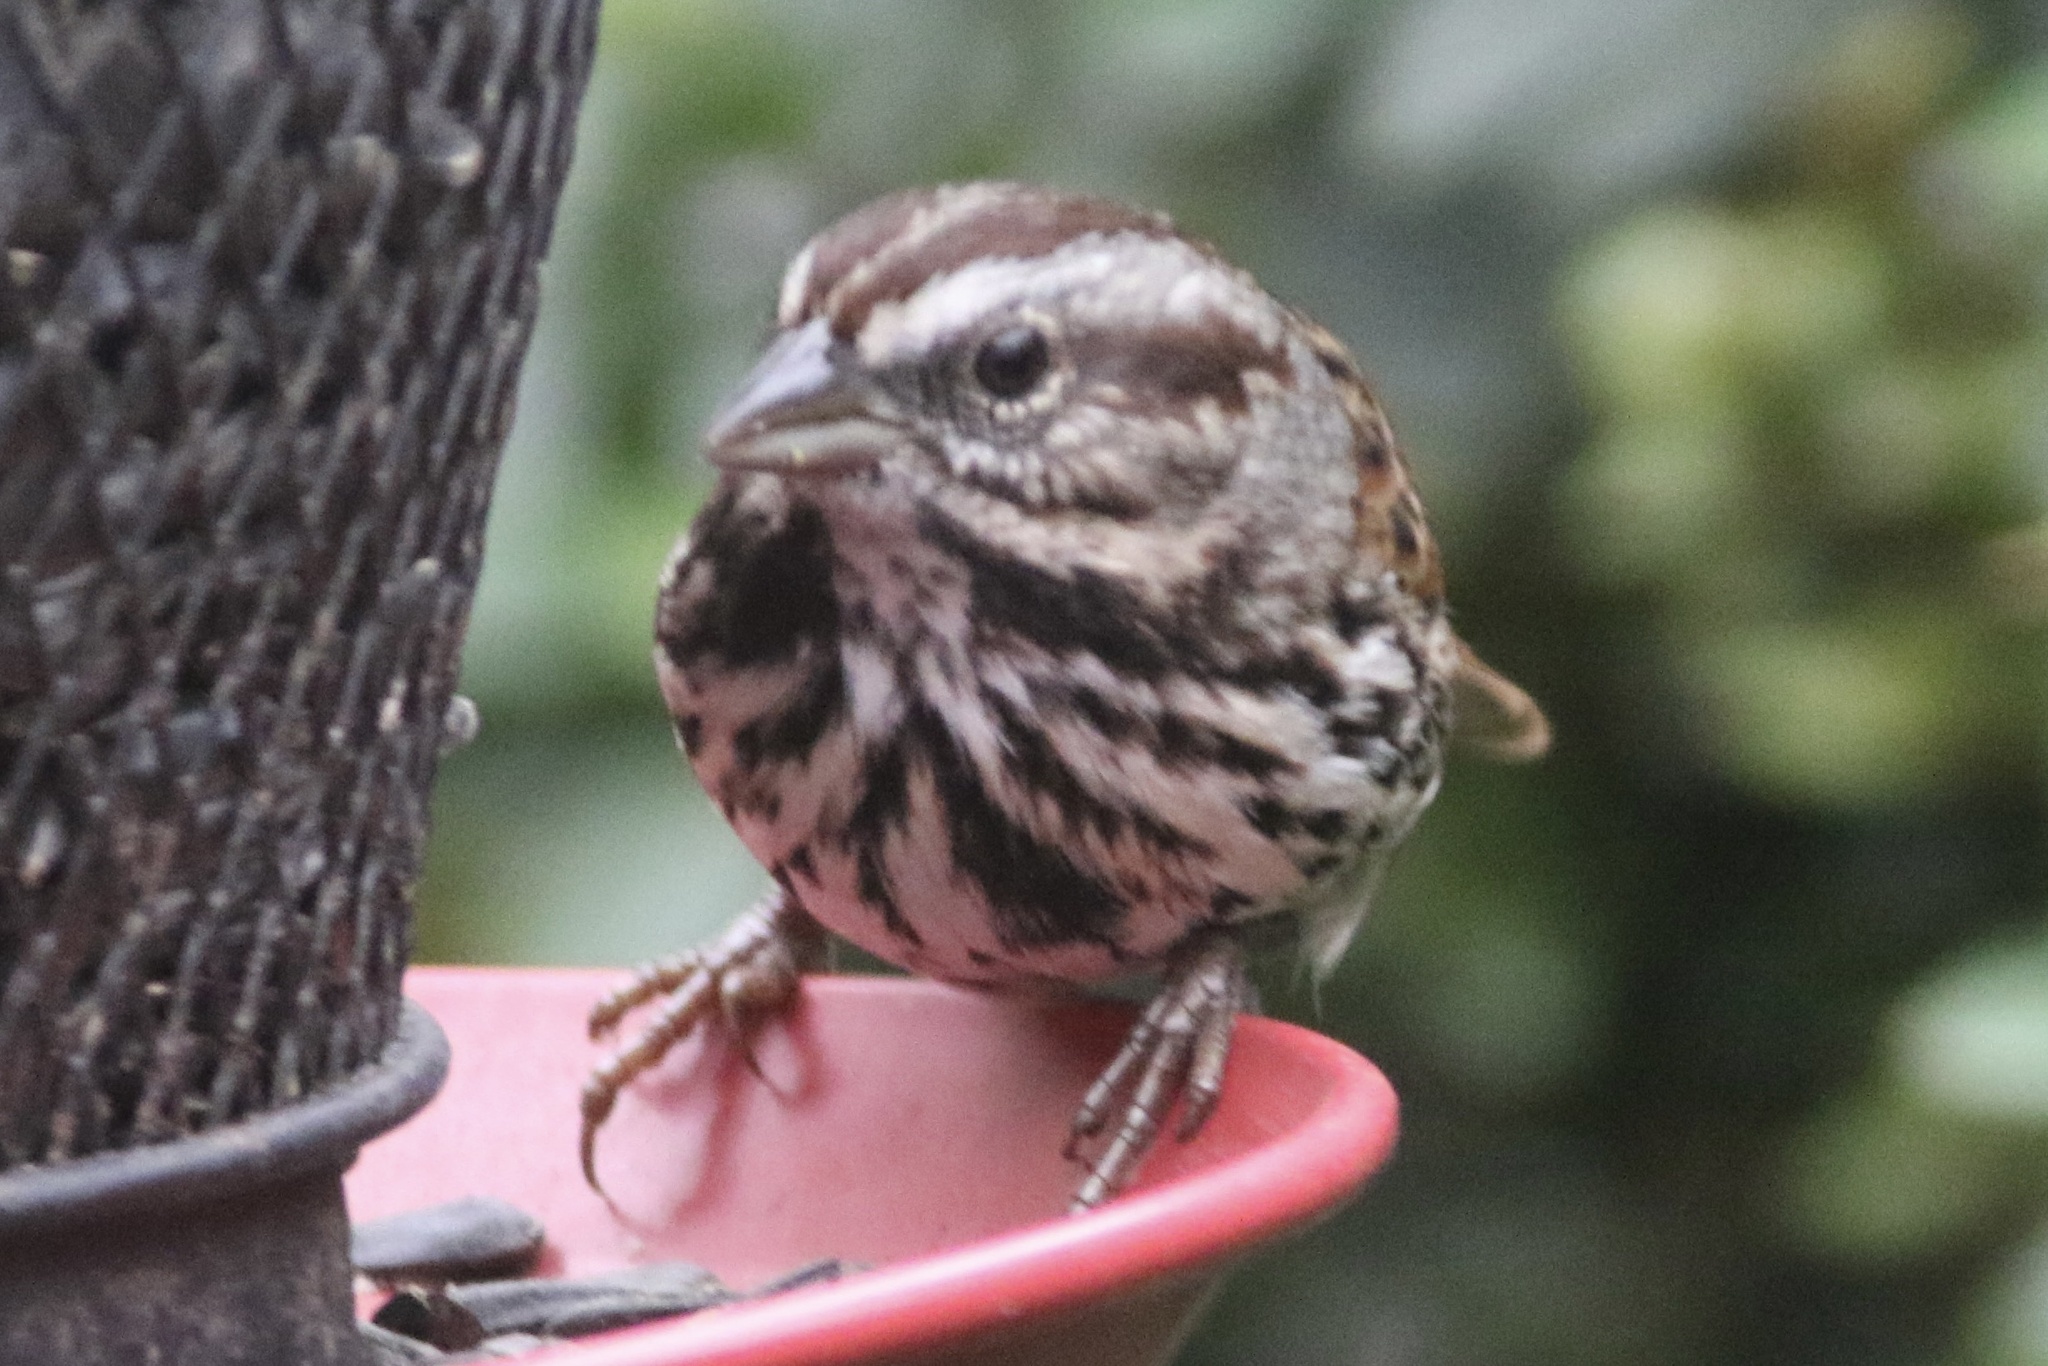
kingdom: Animalia
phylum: Chordata
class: Aves
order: Passeriformes
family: Passerellidae
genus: Melospiza
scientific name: Melospiza melodia
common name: Song sparrow
